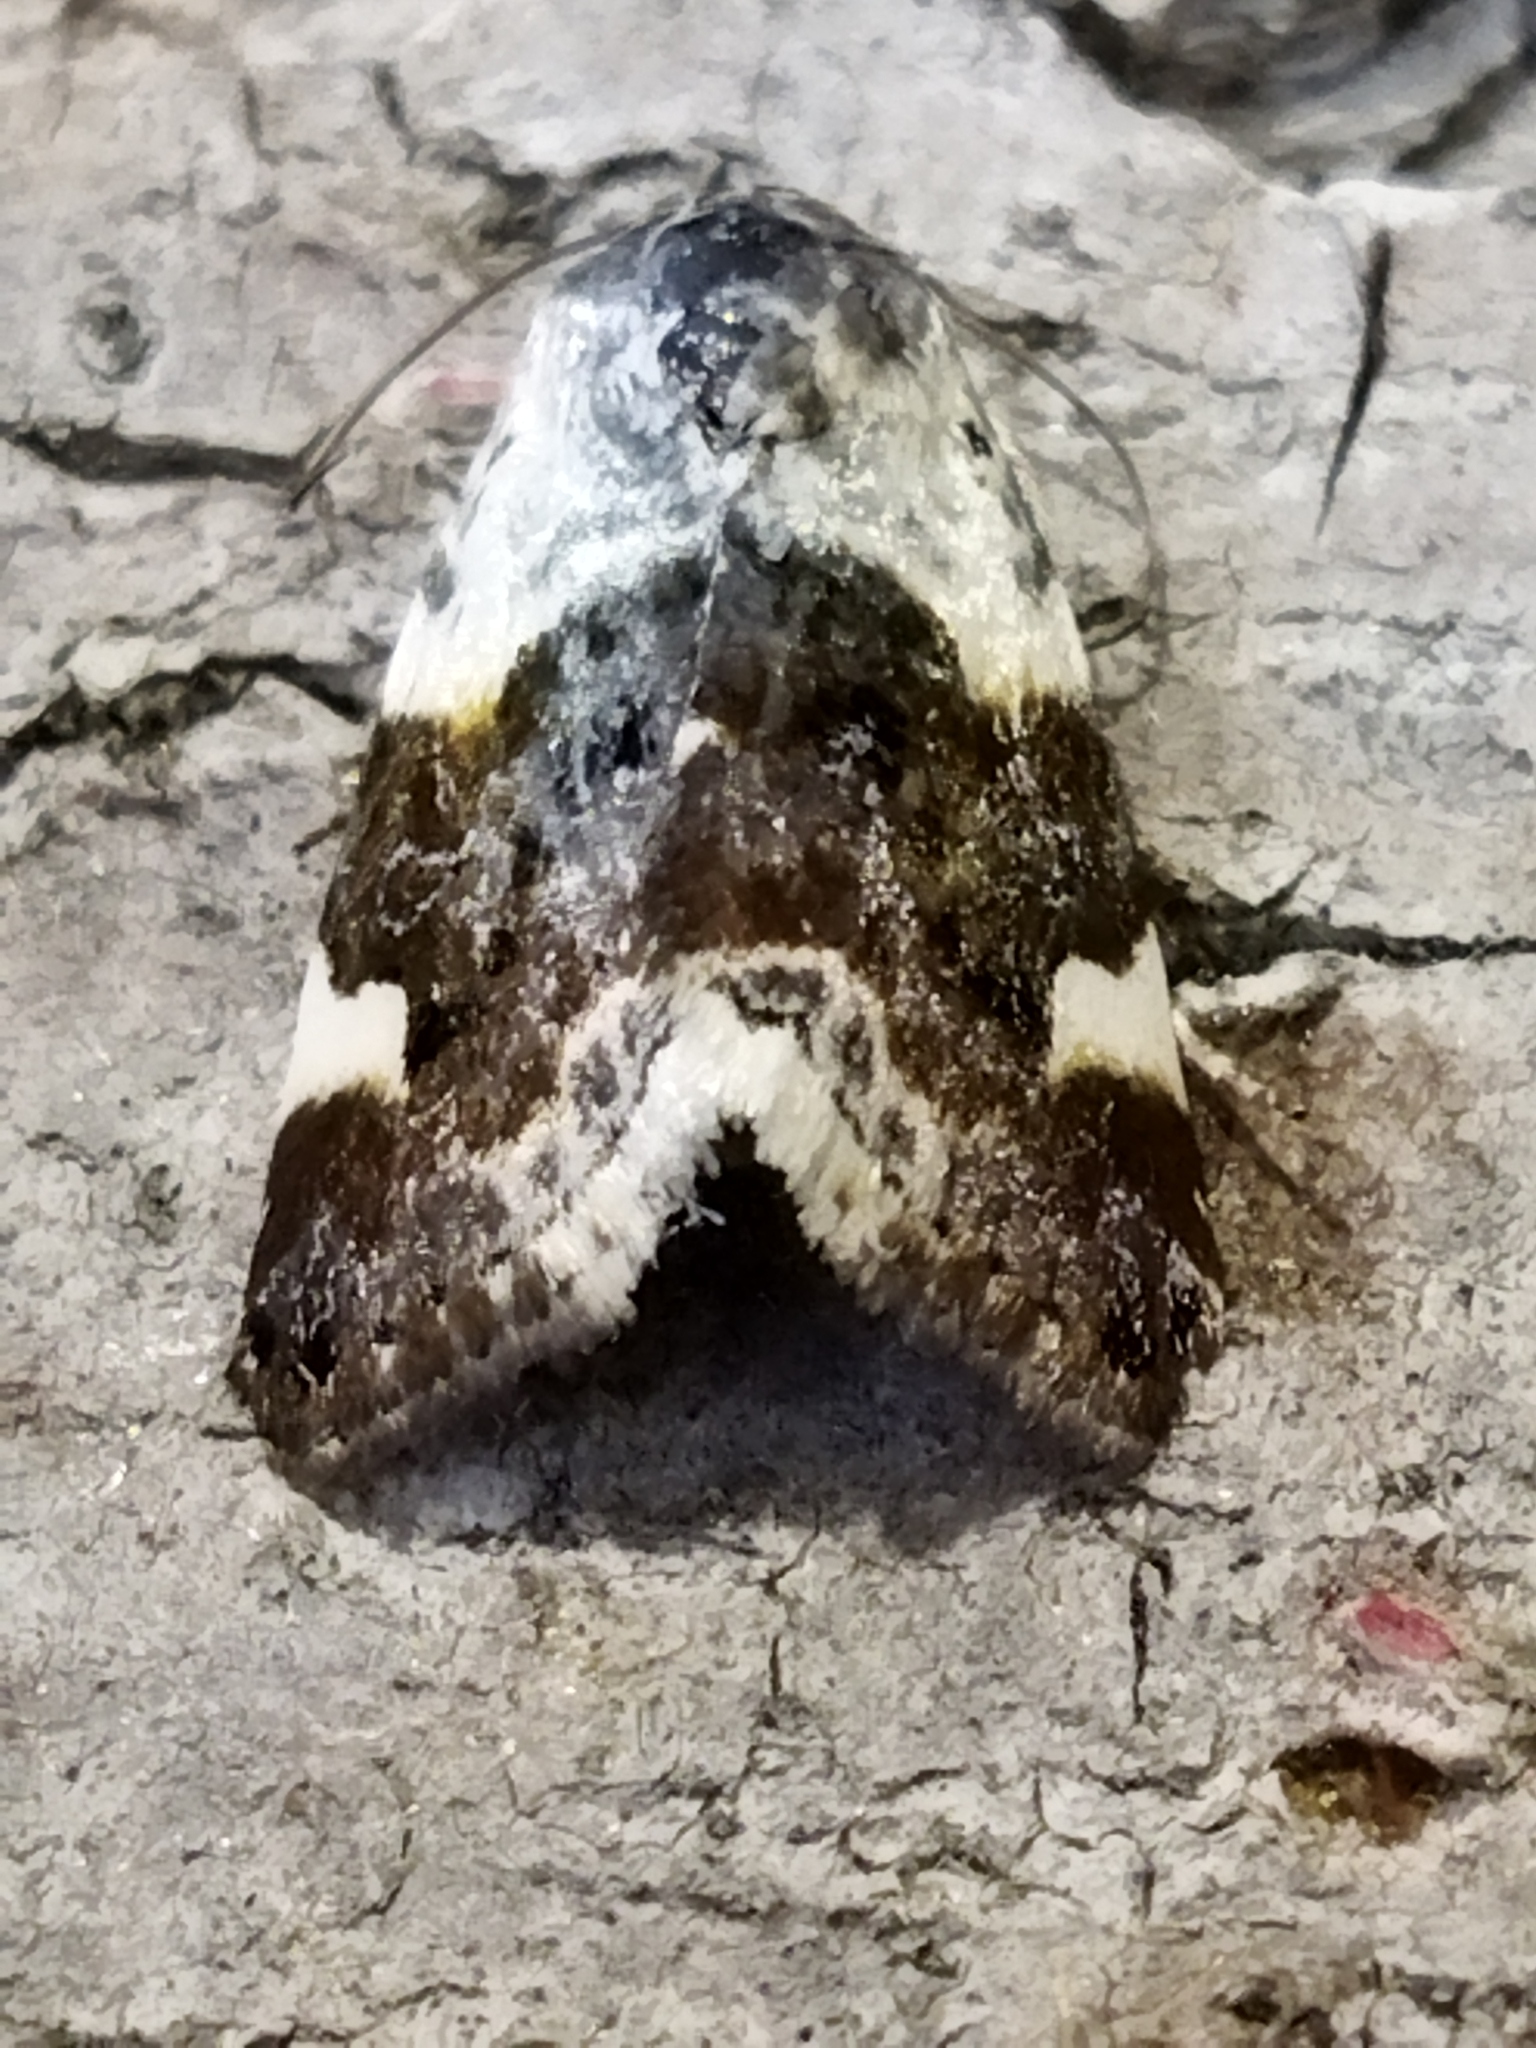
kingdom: Animalia
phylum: Arthropoda
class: Insecta
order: Lepidoptera
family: Noctuidae
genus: Acontia
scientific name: Acontia lucida
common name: Pale shoulder
